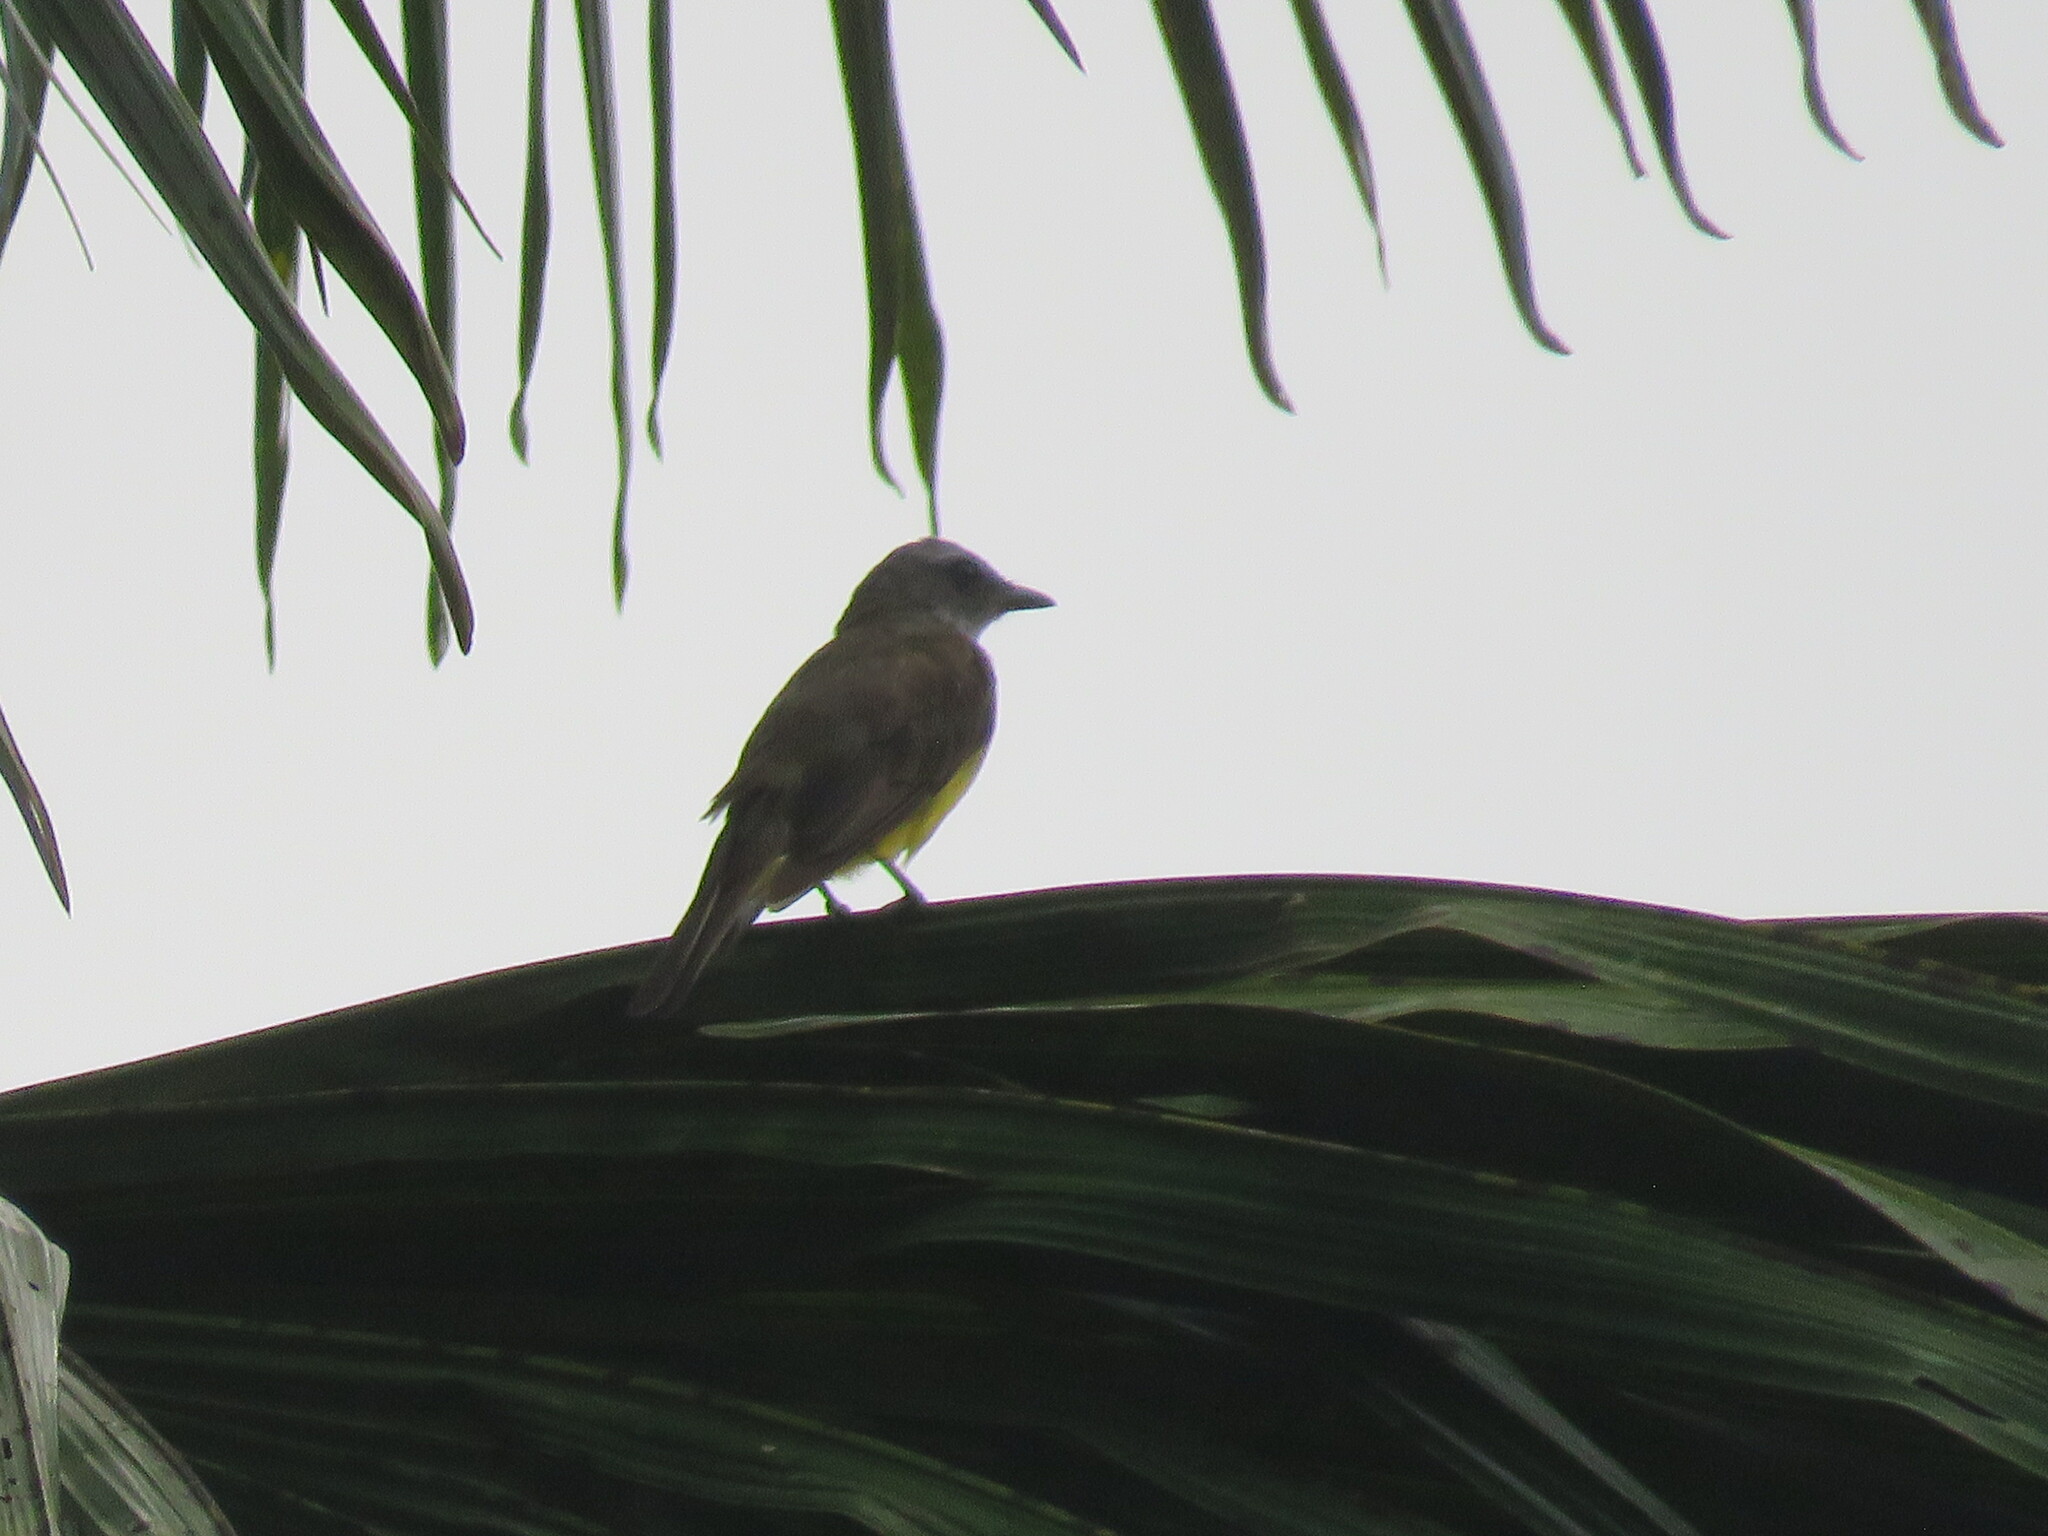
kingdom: Animalia
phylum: Chordata
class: Aves
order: Passeriformes
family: Tyrannidae
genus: Tyrannopsis
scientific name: Tyrannopsis sulphurea
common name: Sulphury flycatcher
